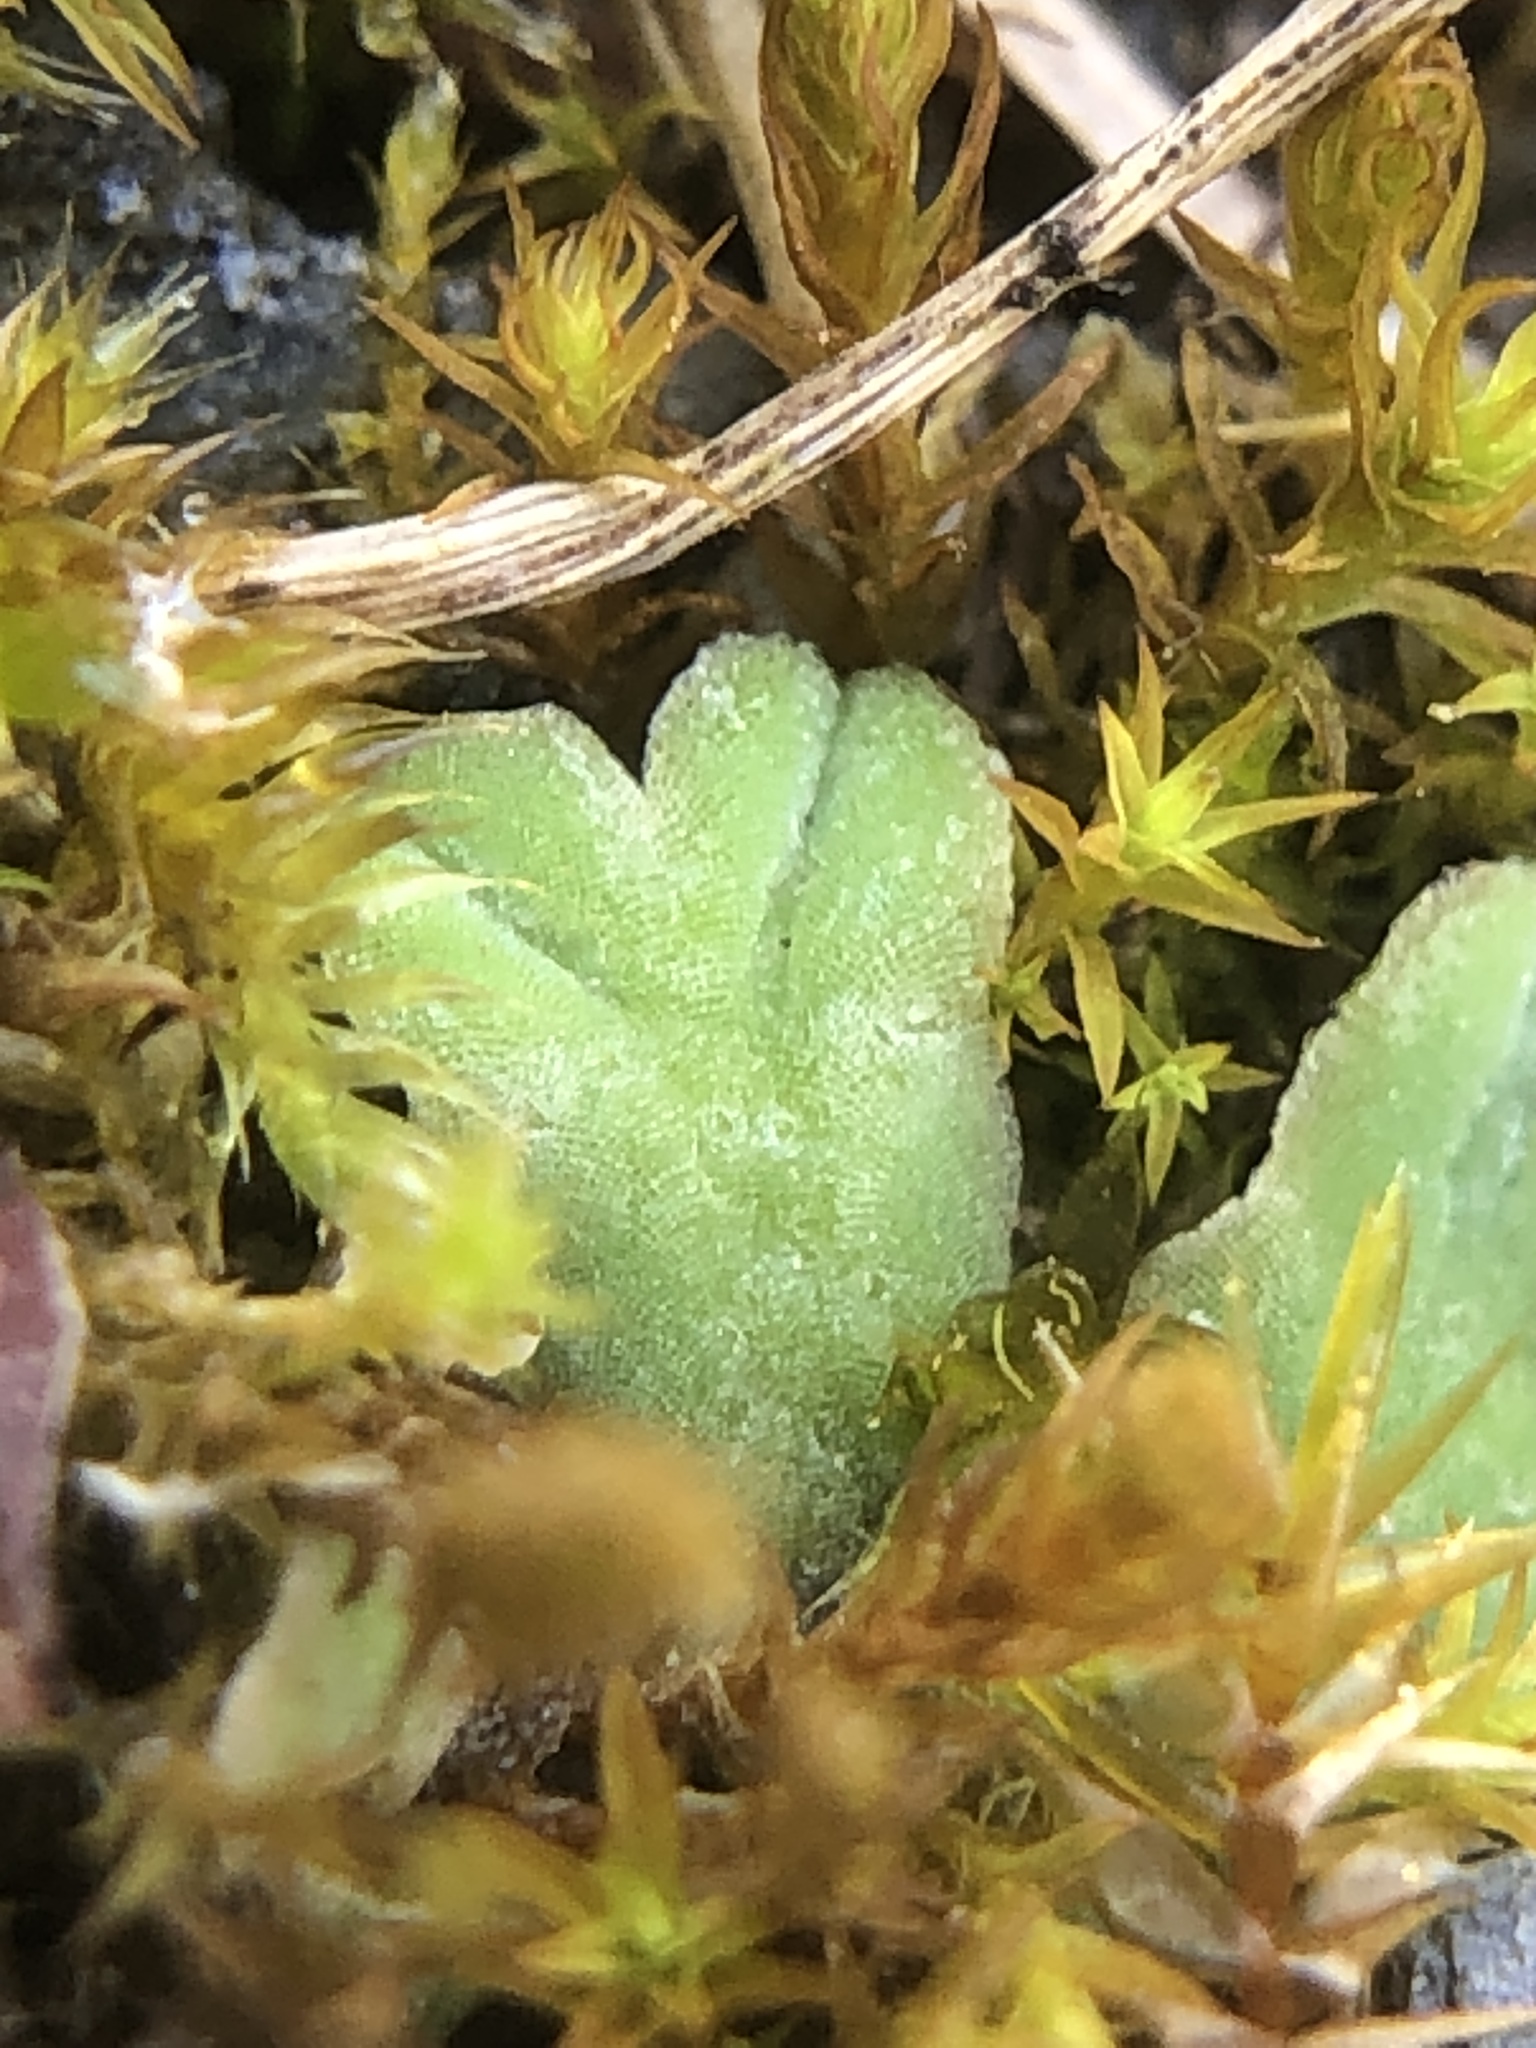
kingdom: Plantae
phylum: Marchantiophyta
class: Marchantiopsida
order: Marchantiales
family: Ricciaceae
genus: Riccia
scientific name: Riccia sorocarpa
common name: Common crystalwort
